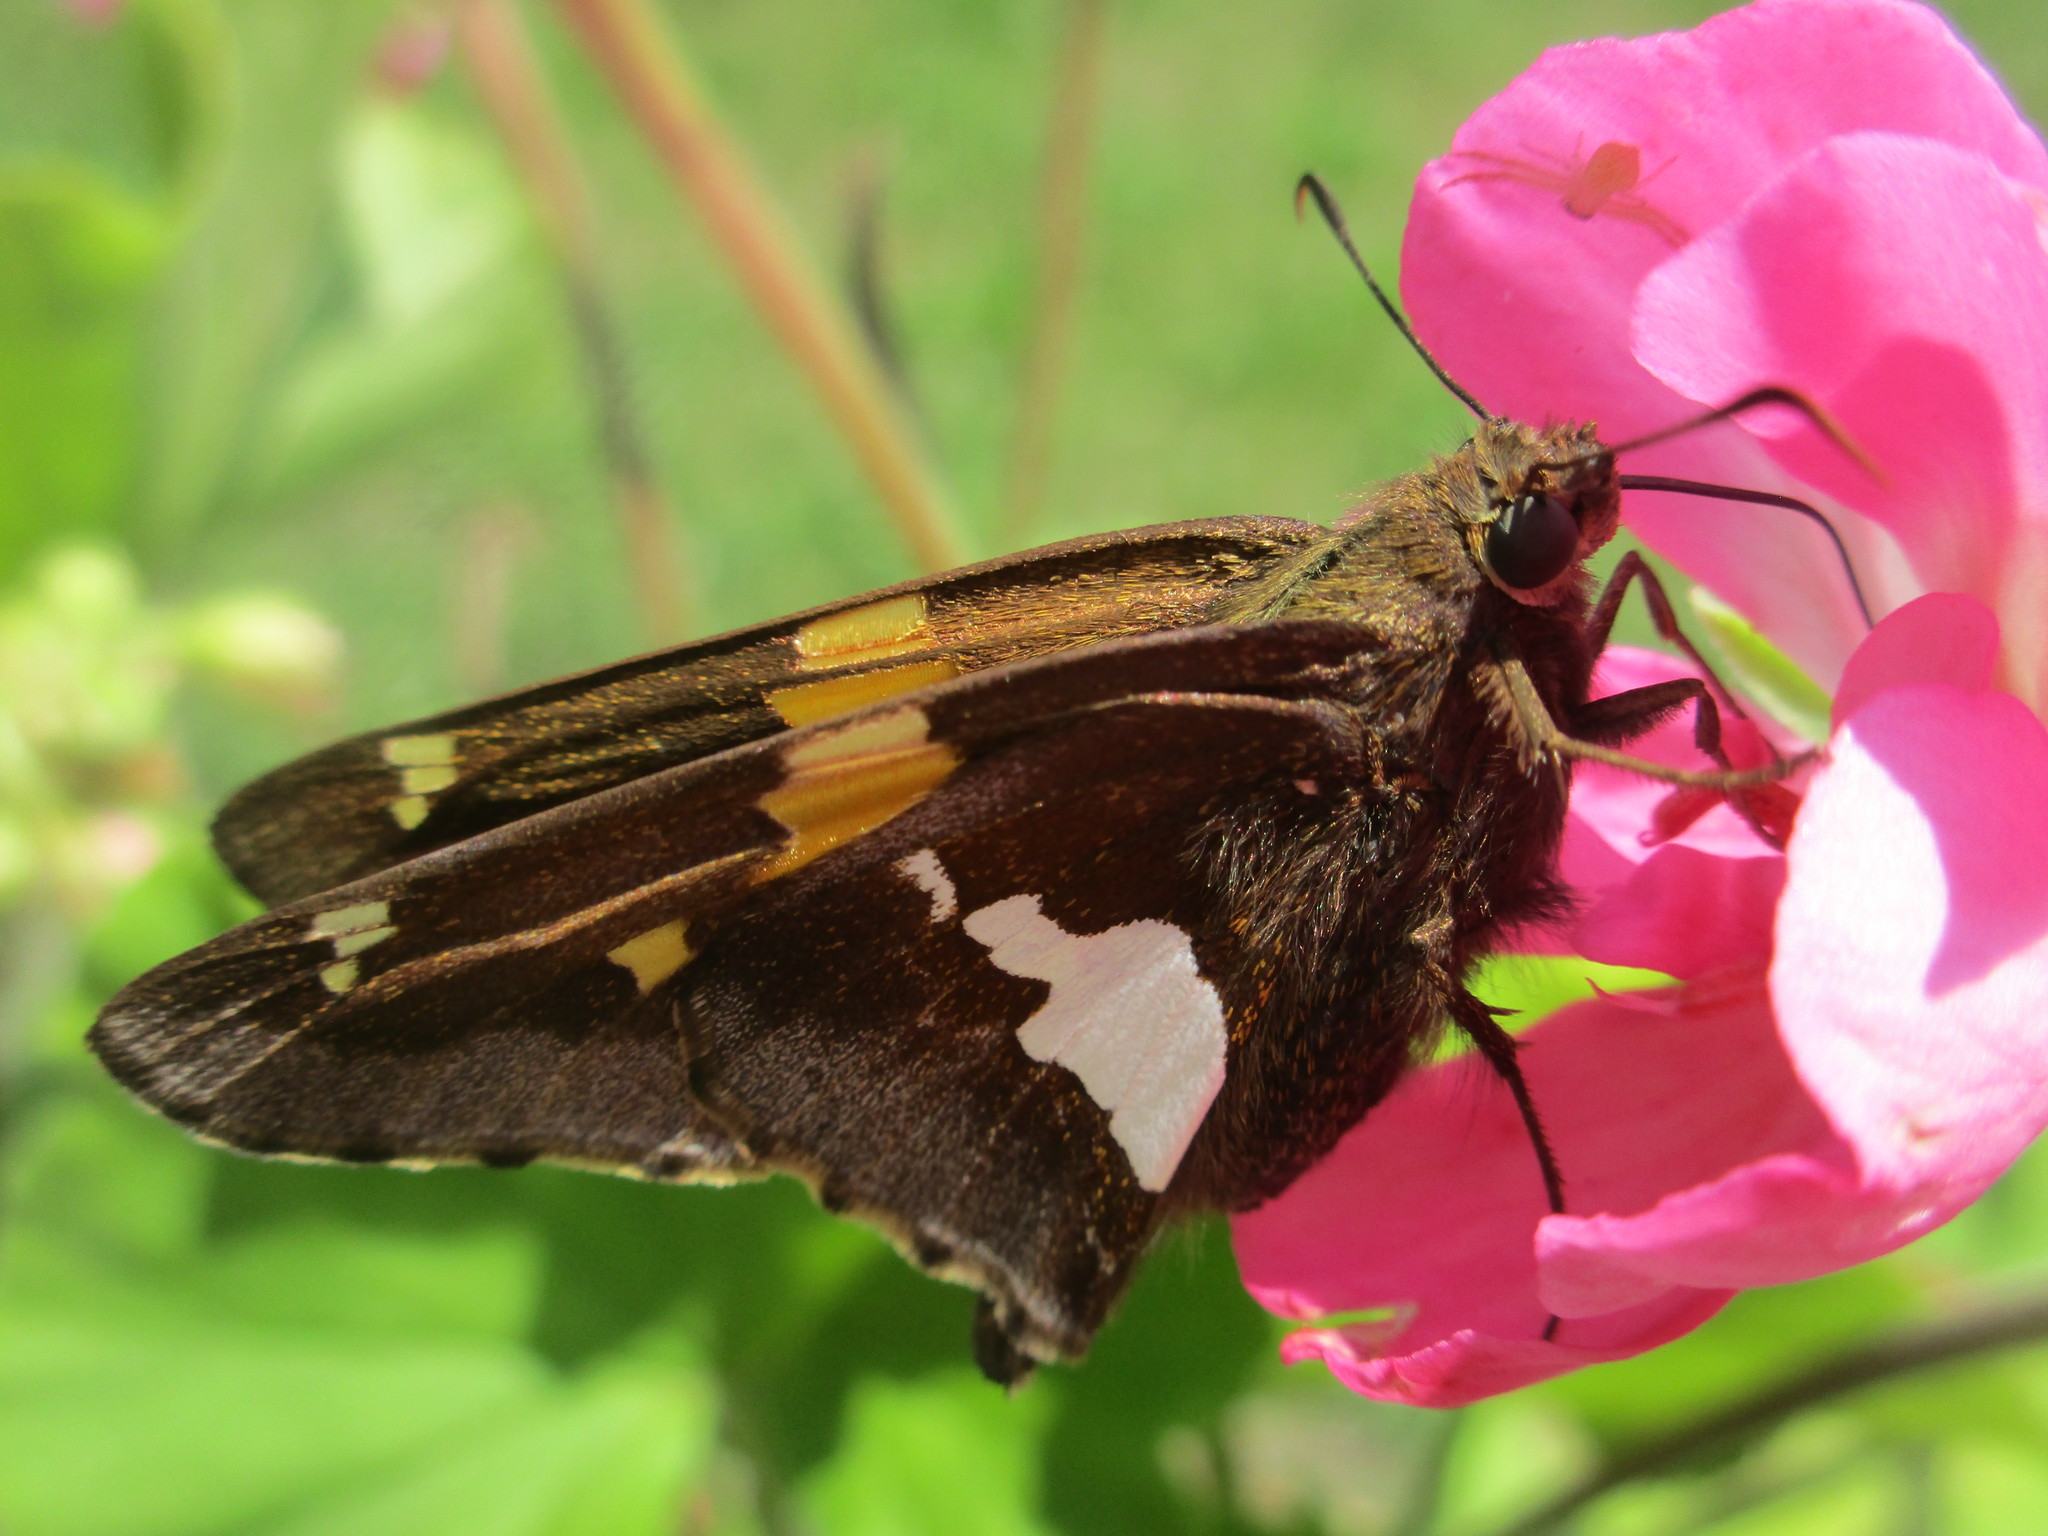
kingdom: Animalia
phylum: Arthropoda
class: Insecta
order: Lepidoptera
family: Hesperiidae
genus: Epargyreus
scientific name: Epargyreus clarus
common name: Silver-spotted skipper
